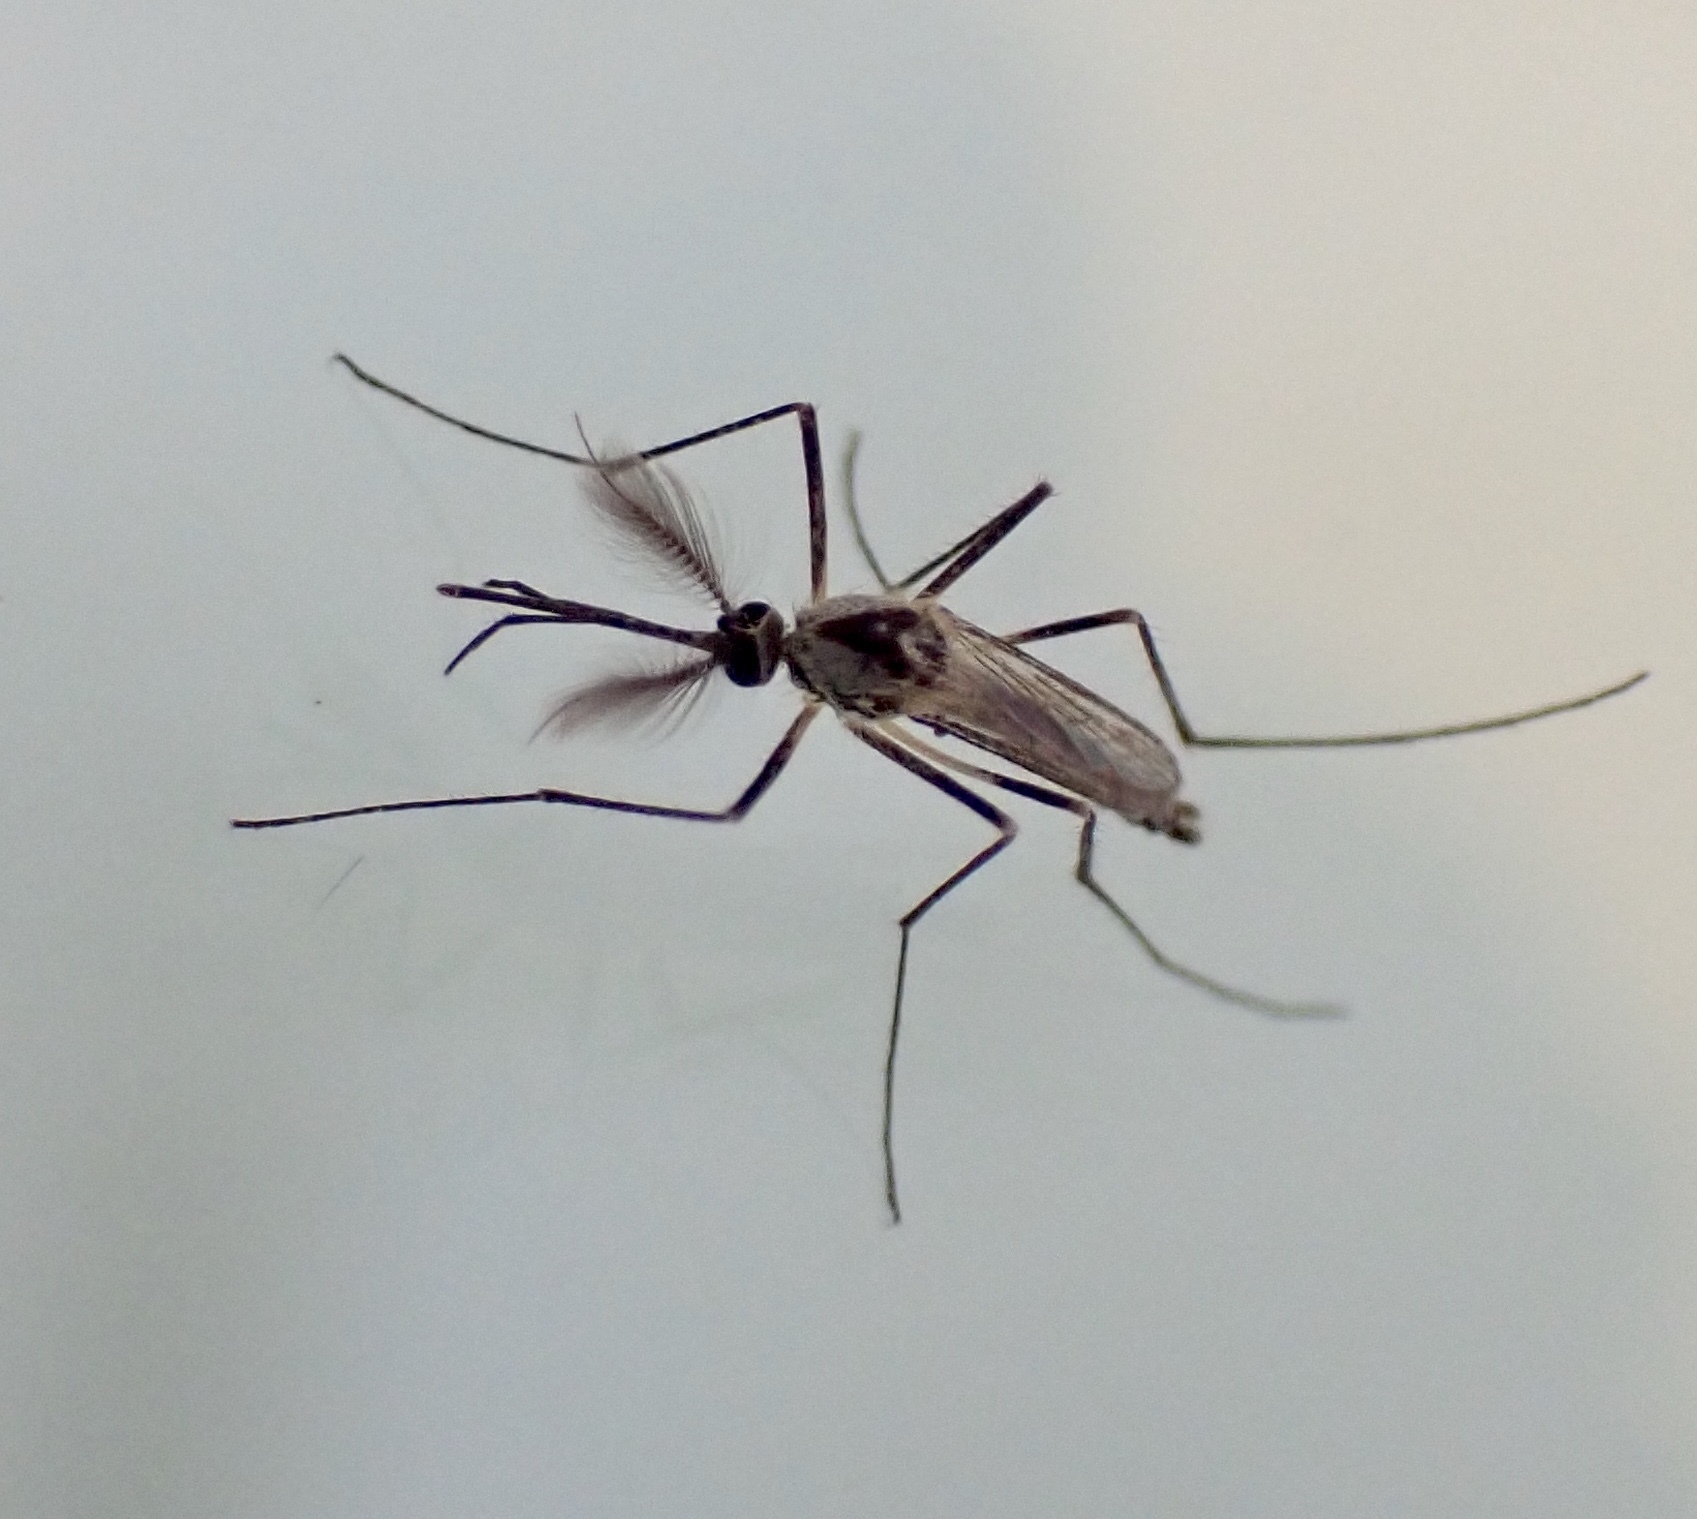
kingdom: Animalia
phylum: Arthropoda
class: Insecta
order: Diptera
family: Culicidae
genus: Aedes
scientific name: Aedes hendersoni
